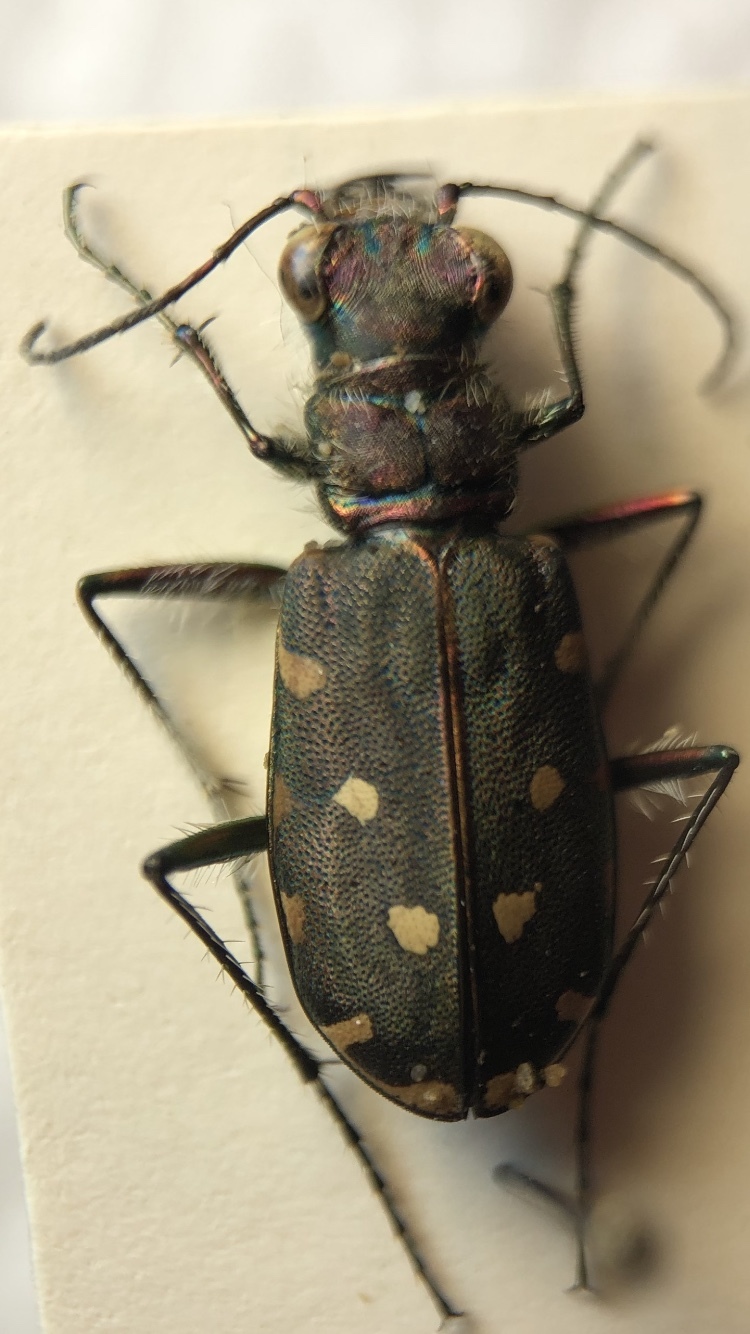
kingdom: Animalia
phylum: Arthropoda
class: Insecta
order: Coleoptera
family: Carabidae
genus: Cicindela
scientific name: Cicindela littoralis
